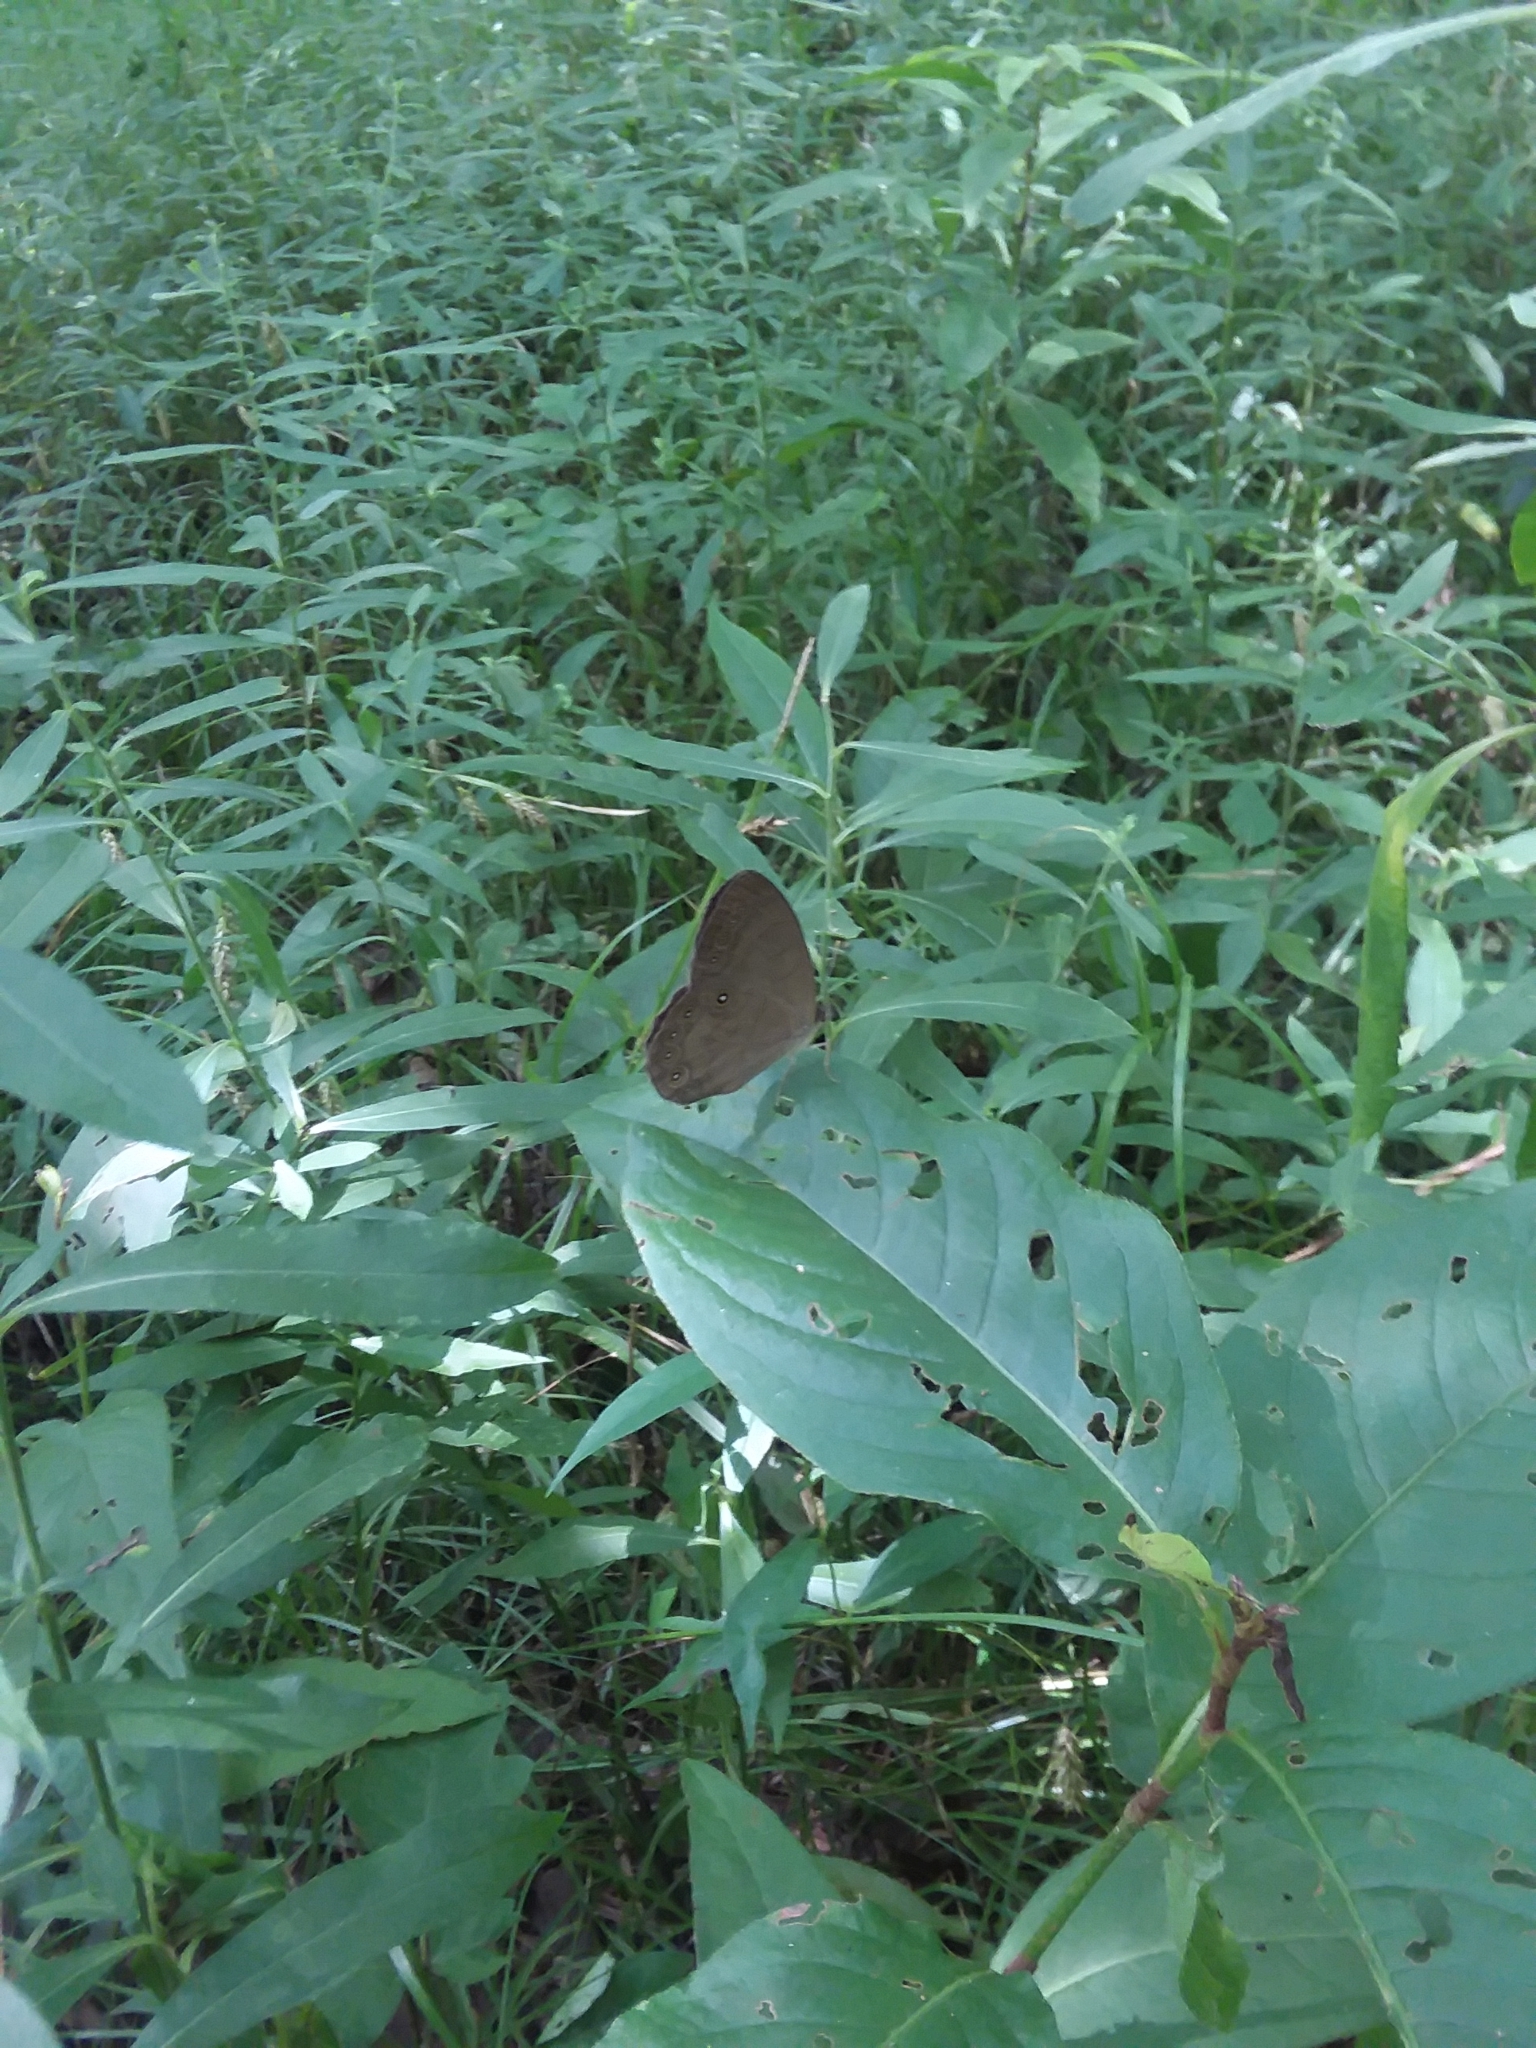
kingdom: Animalia
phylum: Arthropoda
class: Insecta
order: Lepidoptera
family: Nymphalidae
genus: Lethe
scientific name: Lethe eurydice
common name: Eyed brown
